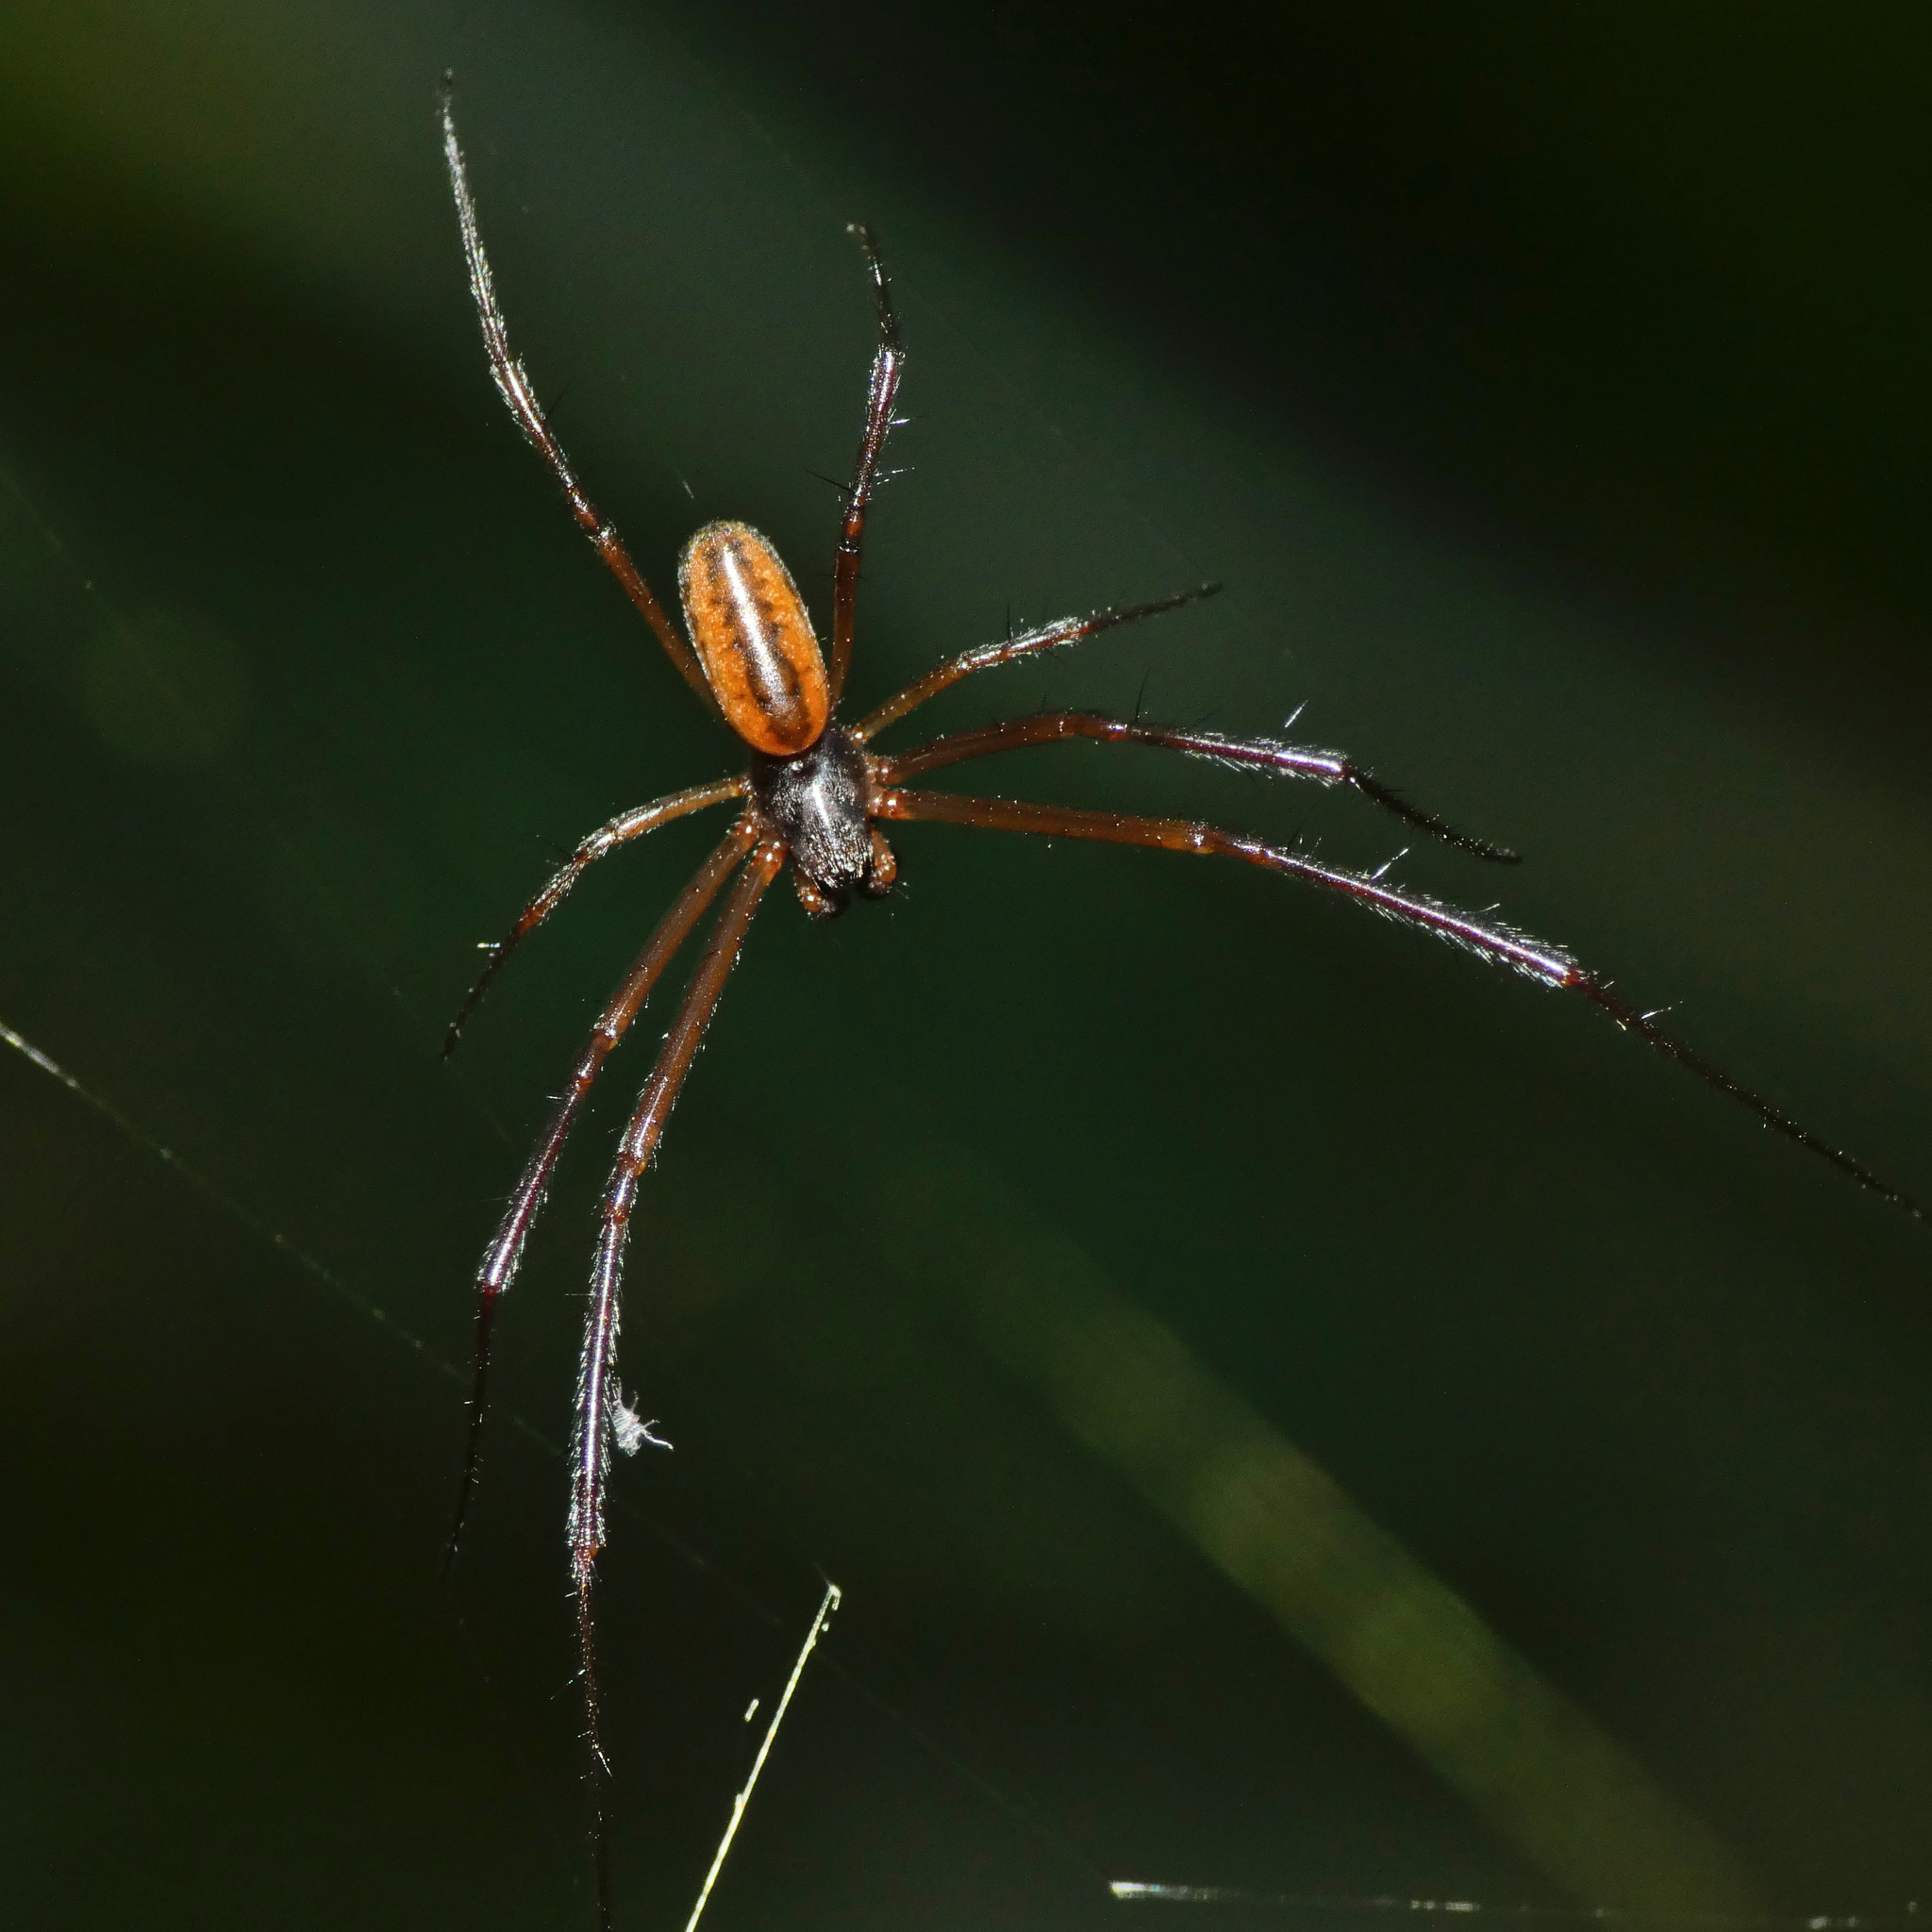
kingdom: Animalia
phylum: Arthropoda
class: Arachnida
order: Araneae
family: Araneidae
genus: Trichonephila
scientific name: Trichonephila fenestrata
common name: Hairy golden orb weaver
